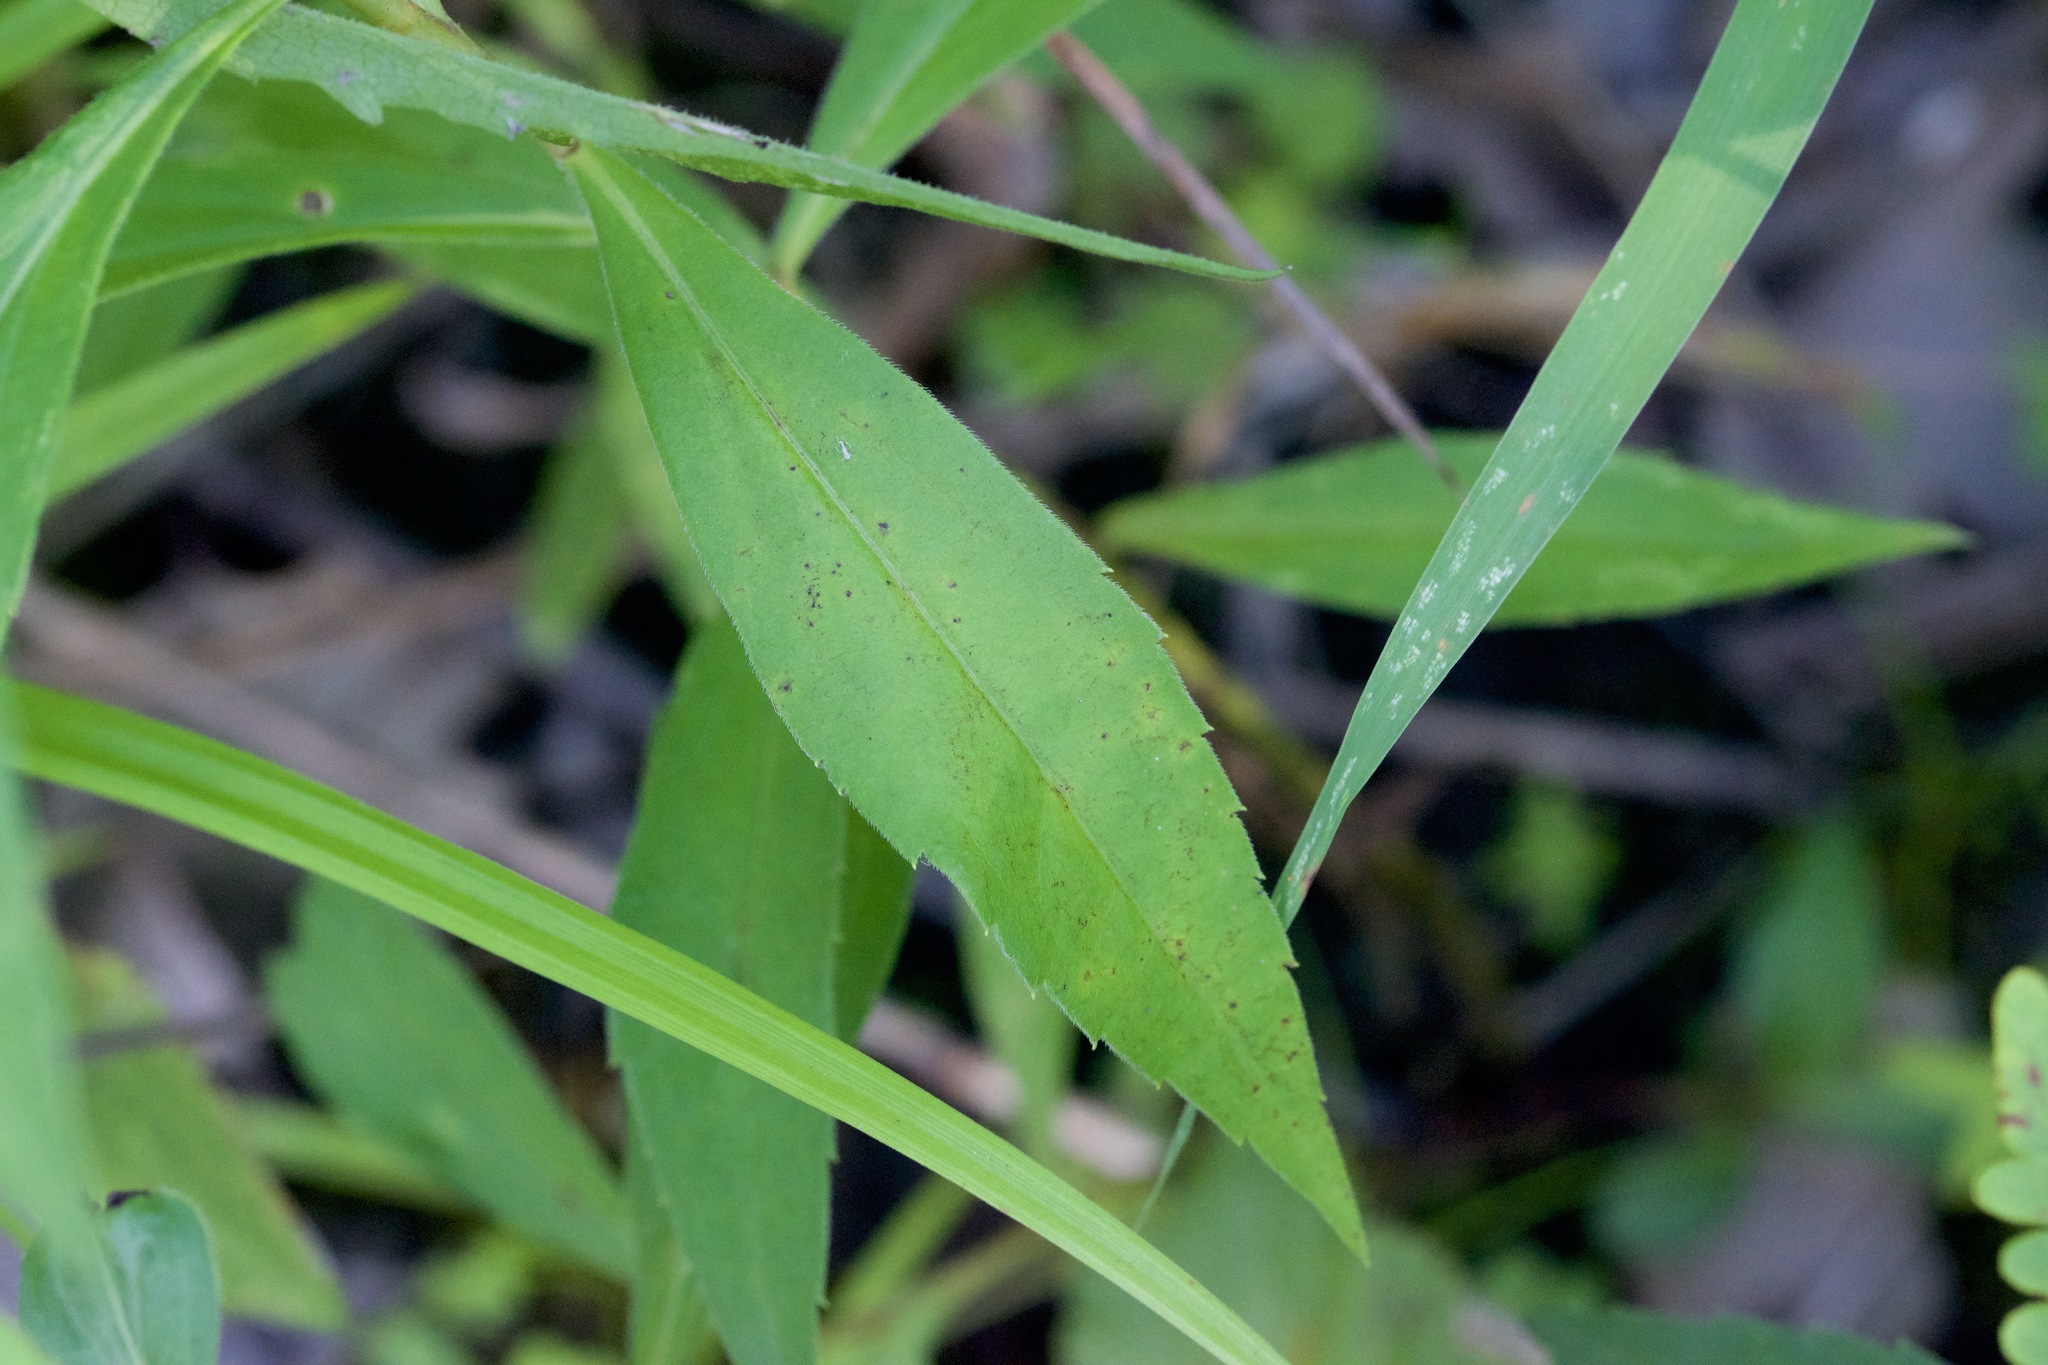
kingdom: Plantae
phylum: Tracheophyta
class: Magnoliopsida
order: Asterales
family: Asteraceae
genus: Symphyotrichum
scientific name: Symphyotrichum lateriflorum
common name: Calico aster
